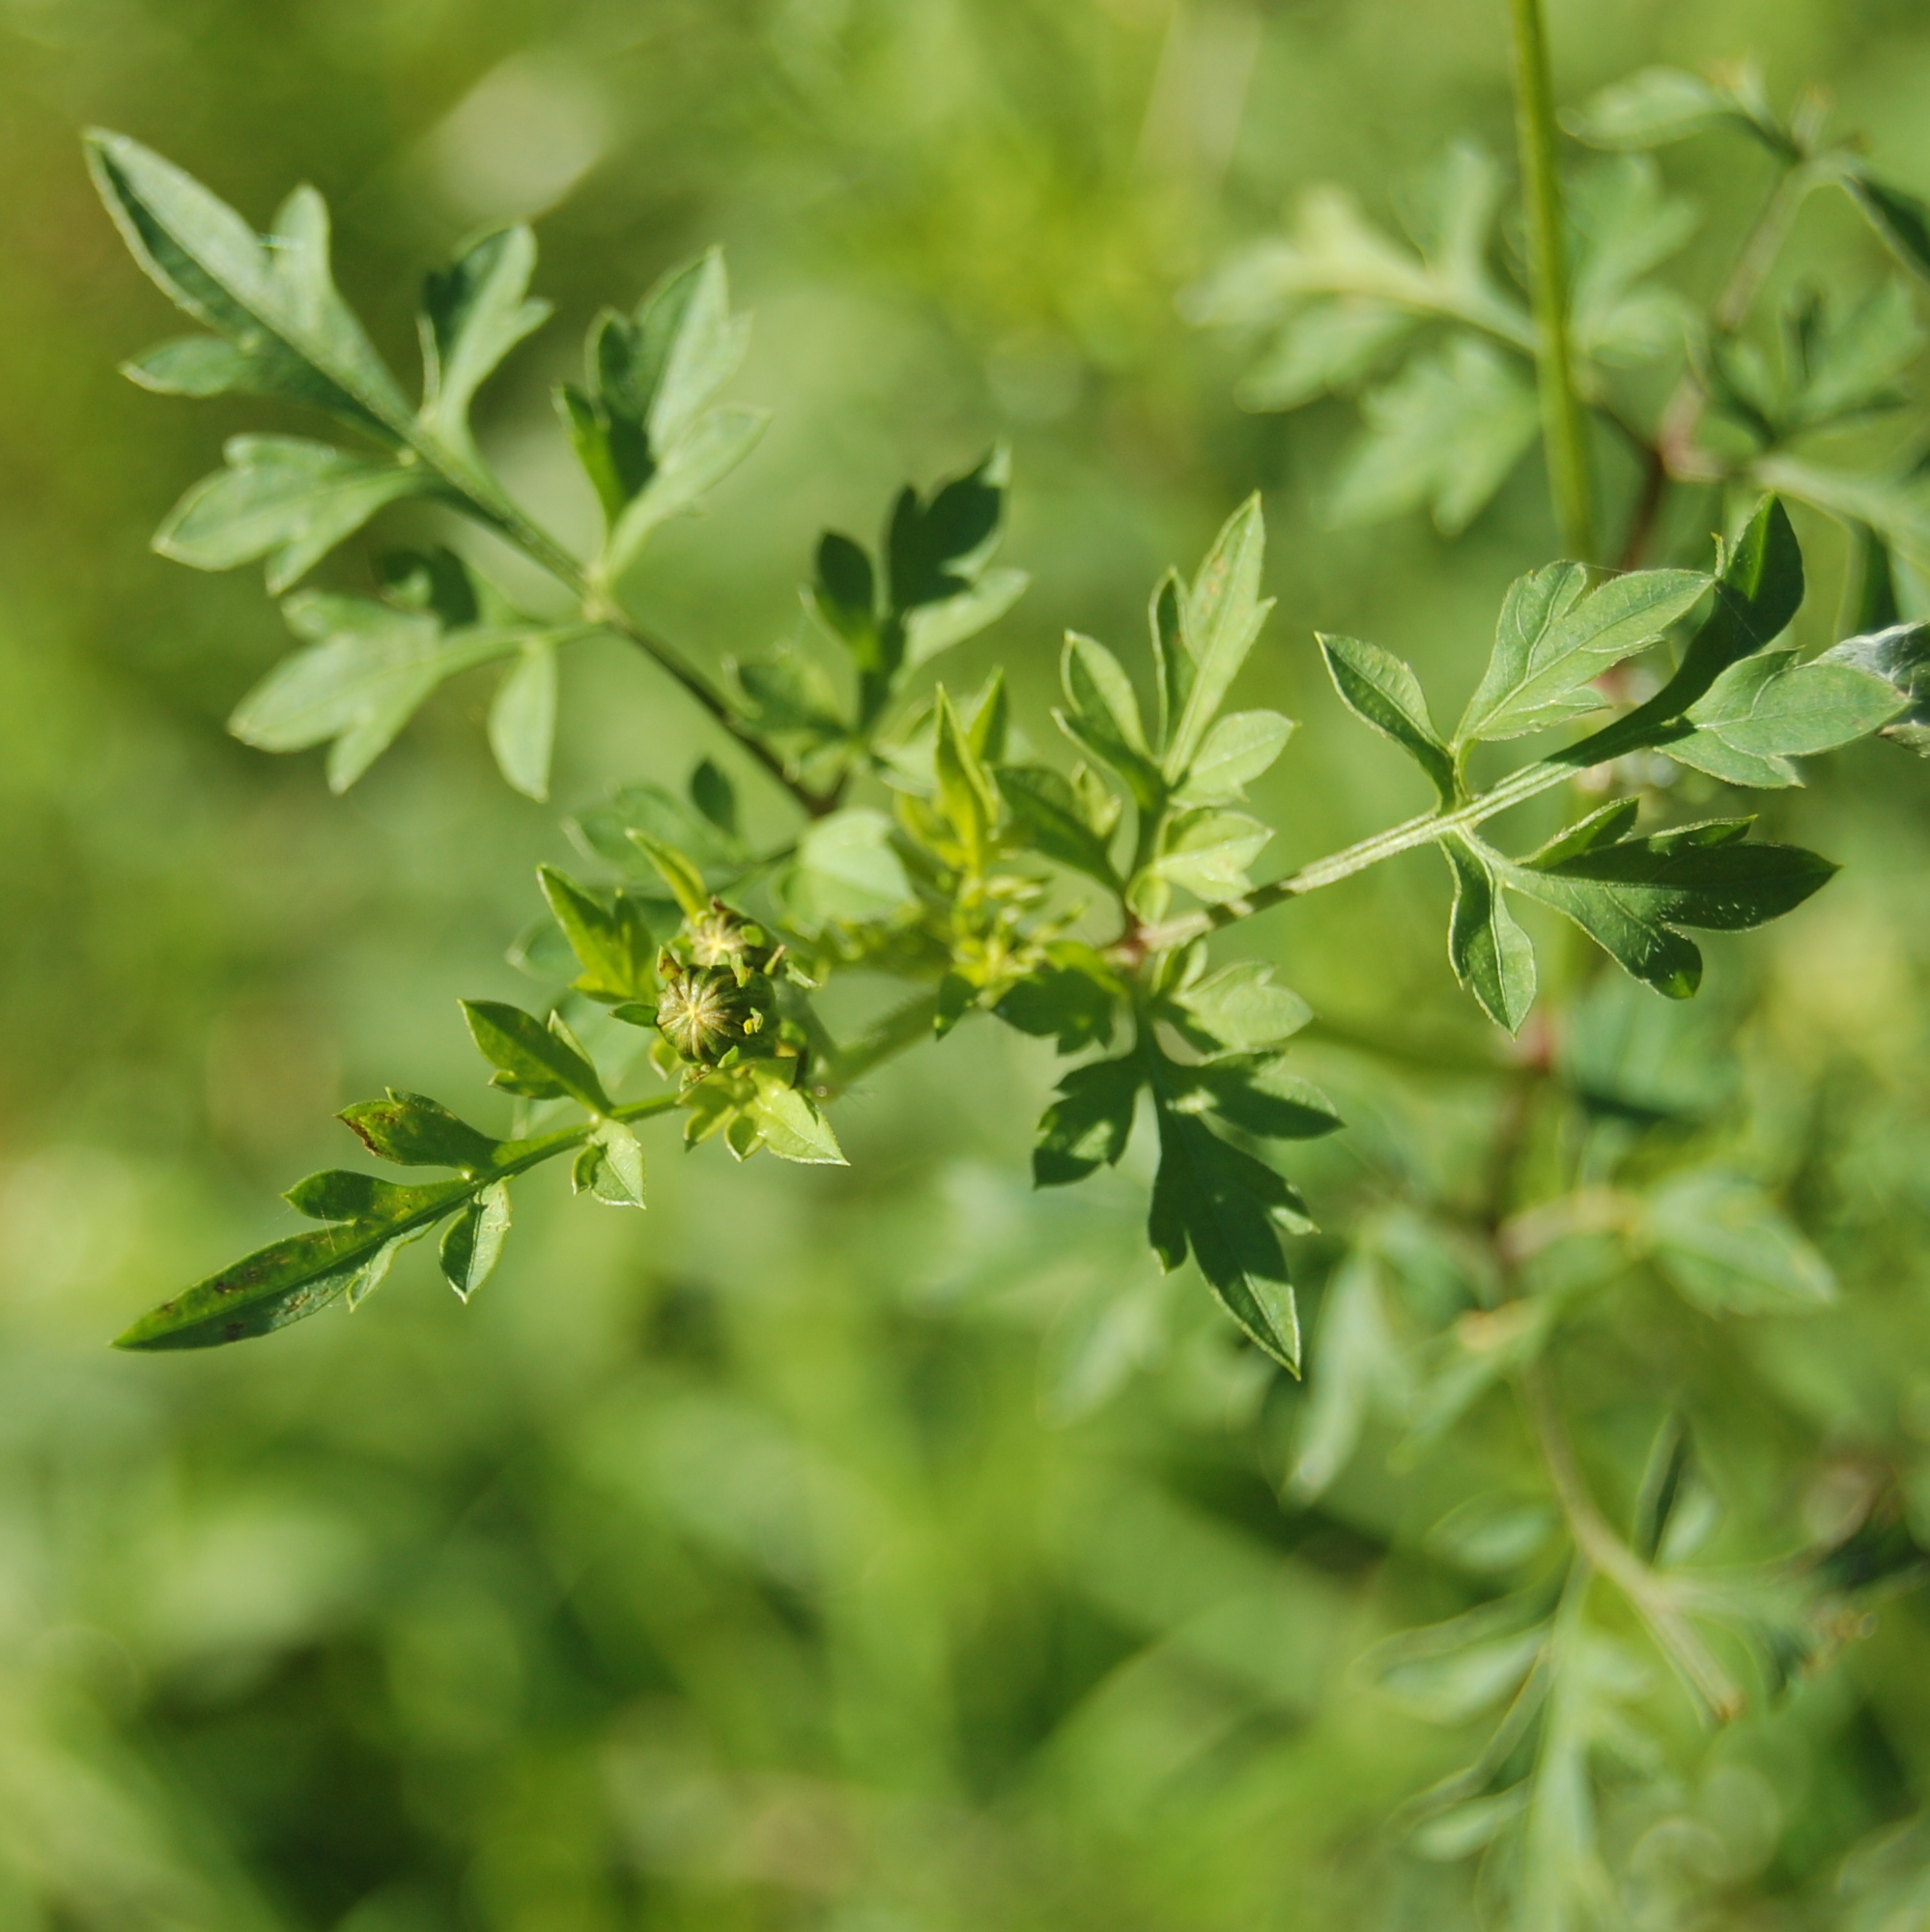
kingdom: Plantae
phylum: Tracheophyta
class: Magnoliopsida
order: Asterales
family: Asteraceae
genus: Bidens
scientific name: Bidens subalternans
